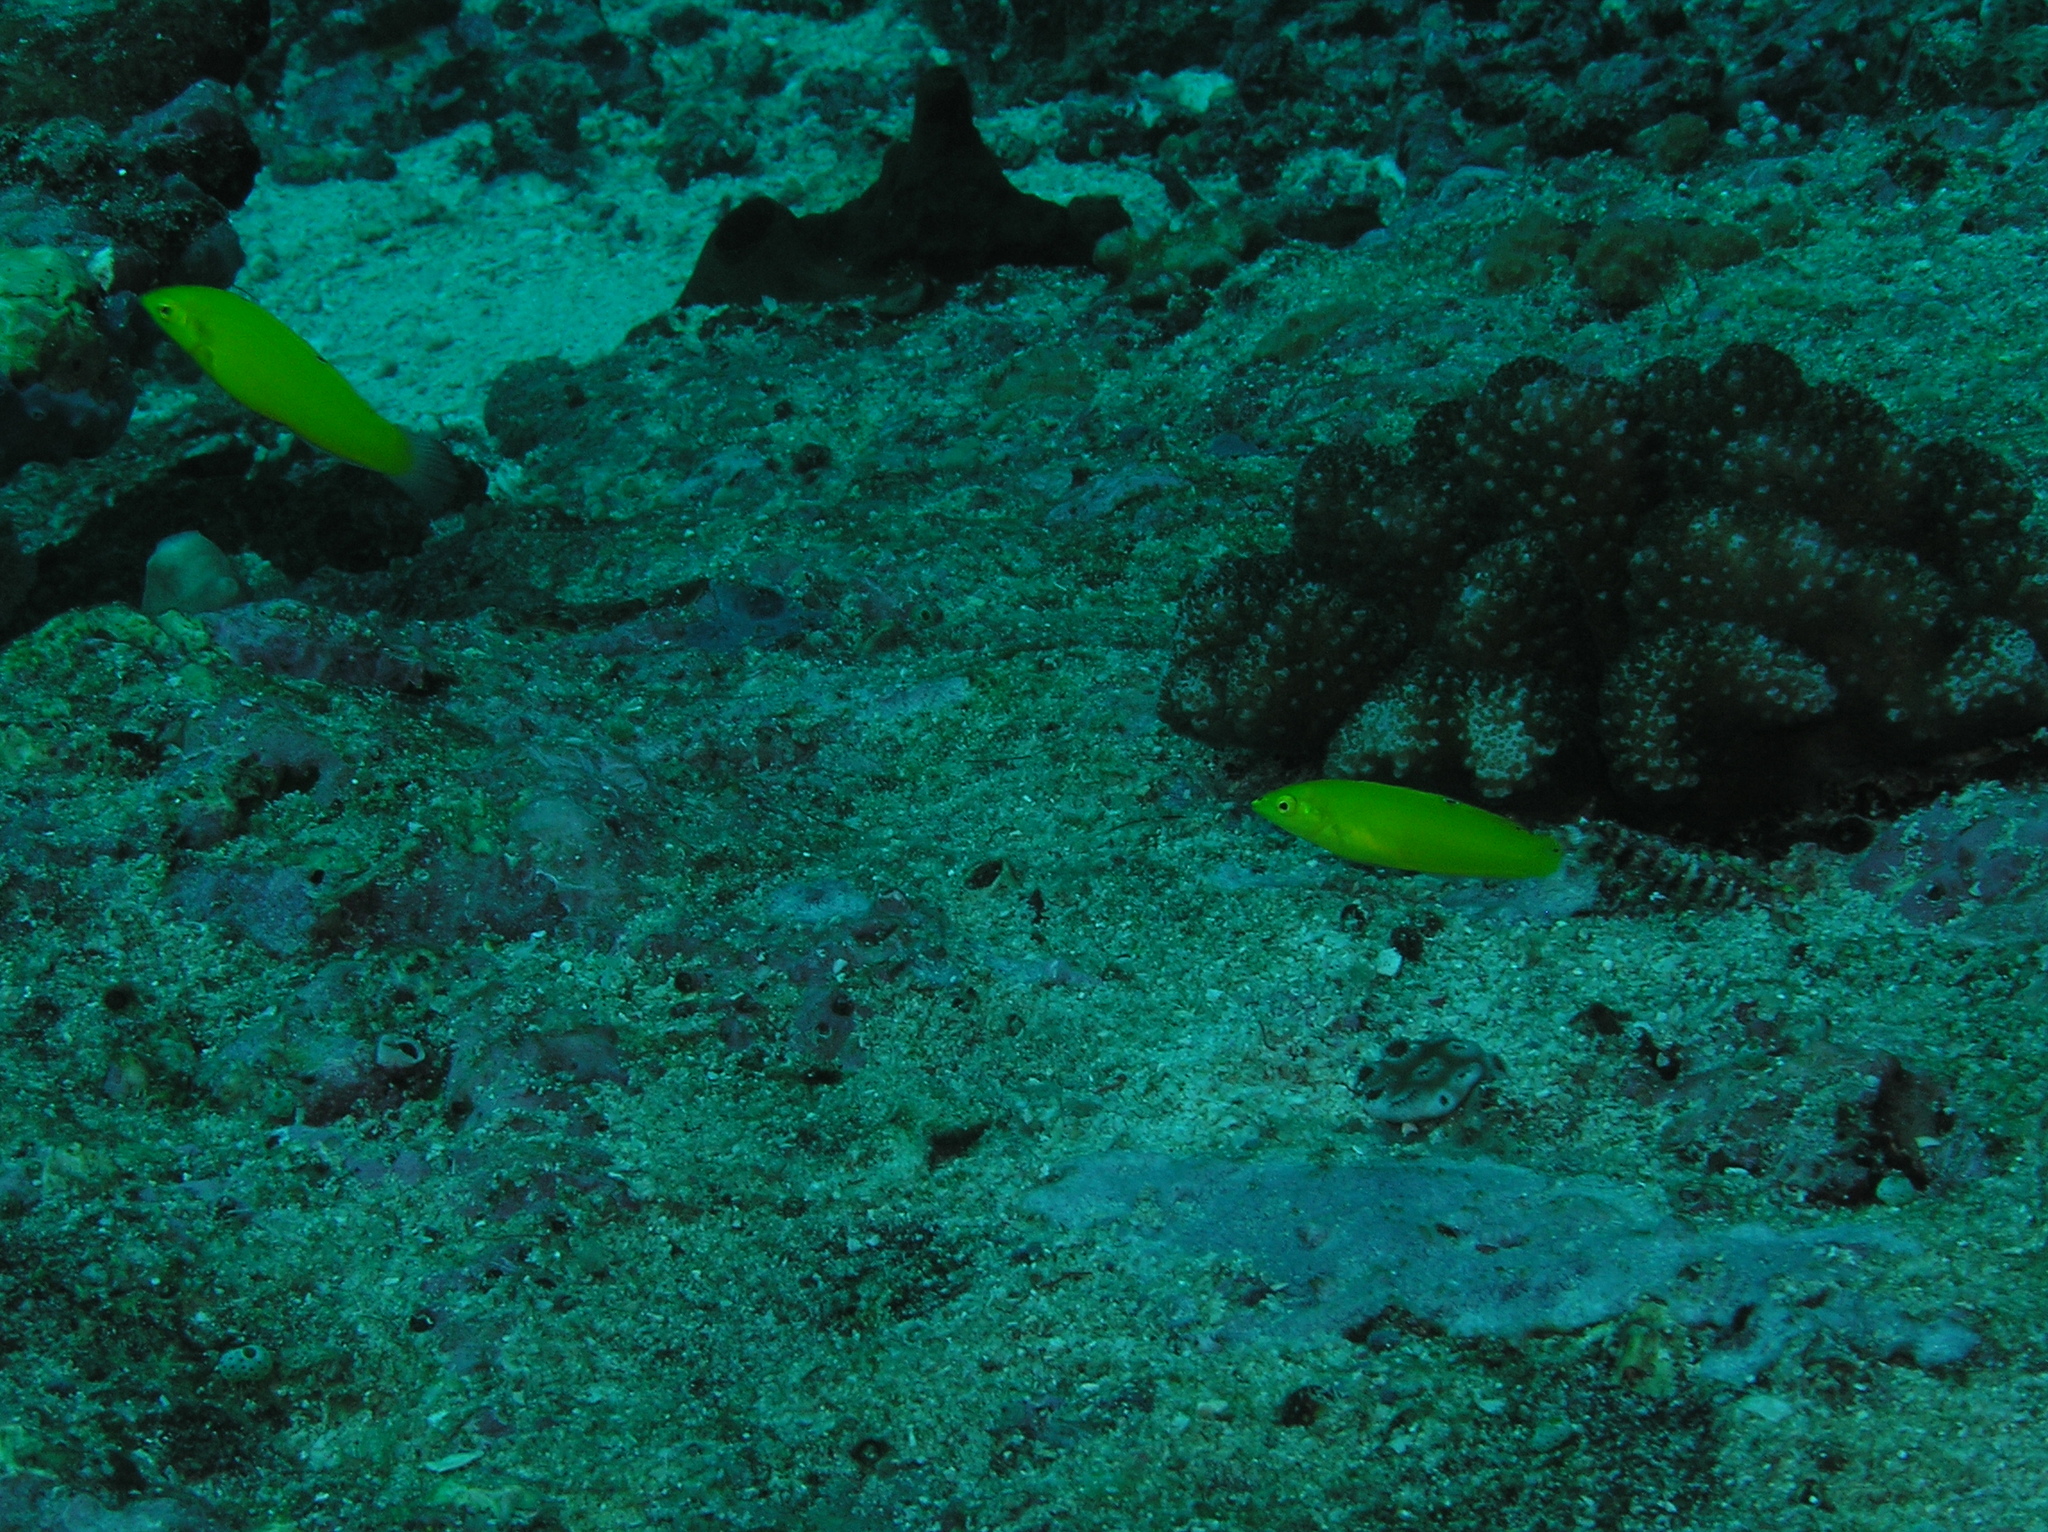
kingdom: Animalia
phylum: Chordata
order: Perciformes
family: Labridae
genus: Halichoeres
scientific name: Halichoeres chrysus
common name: Canary wrasse
